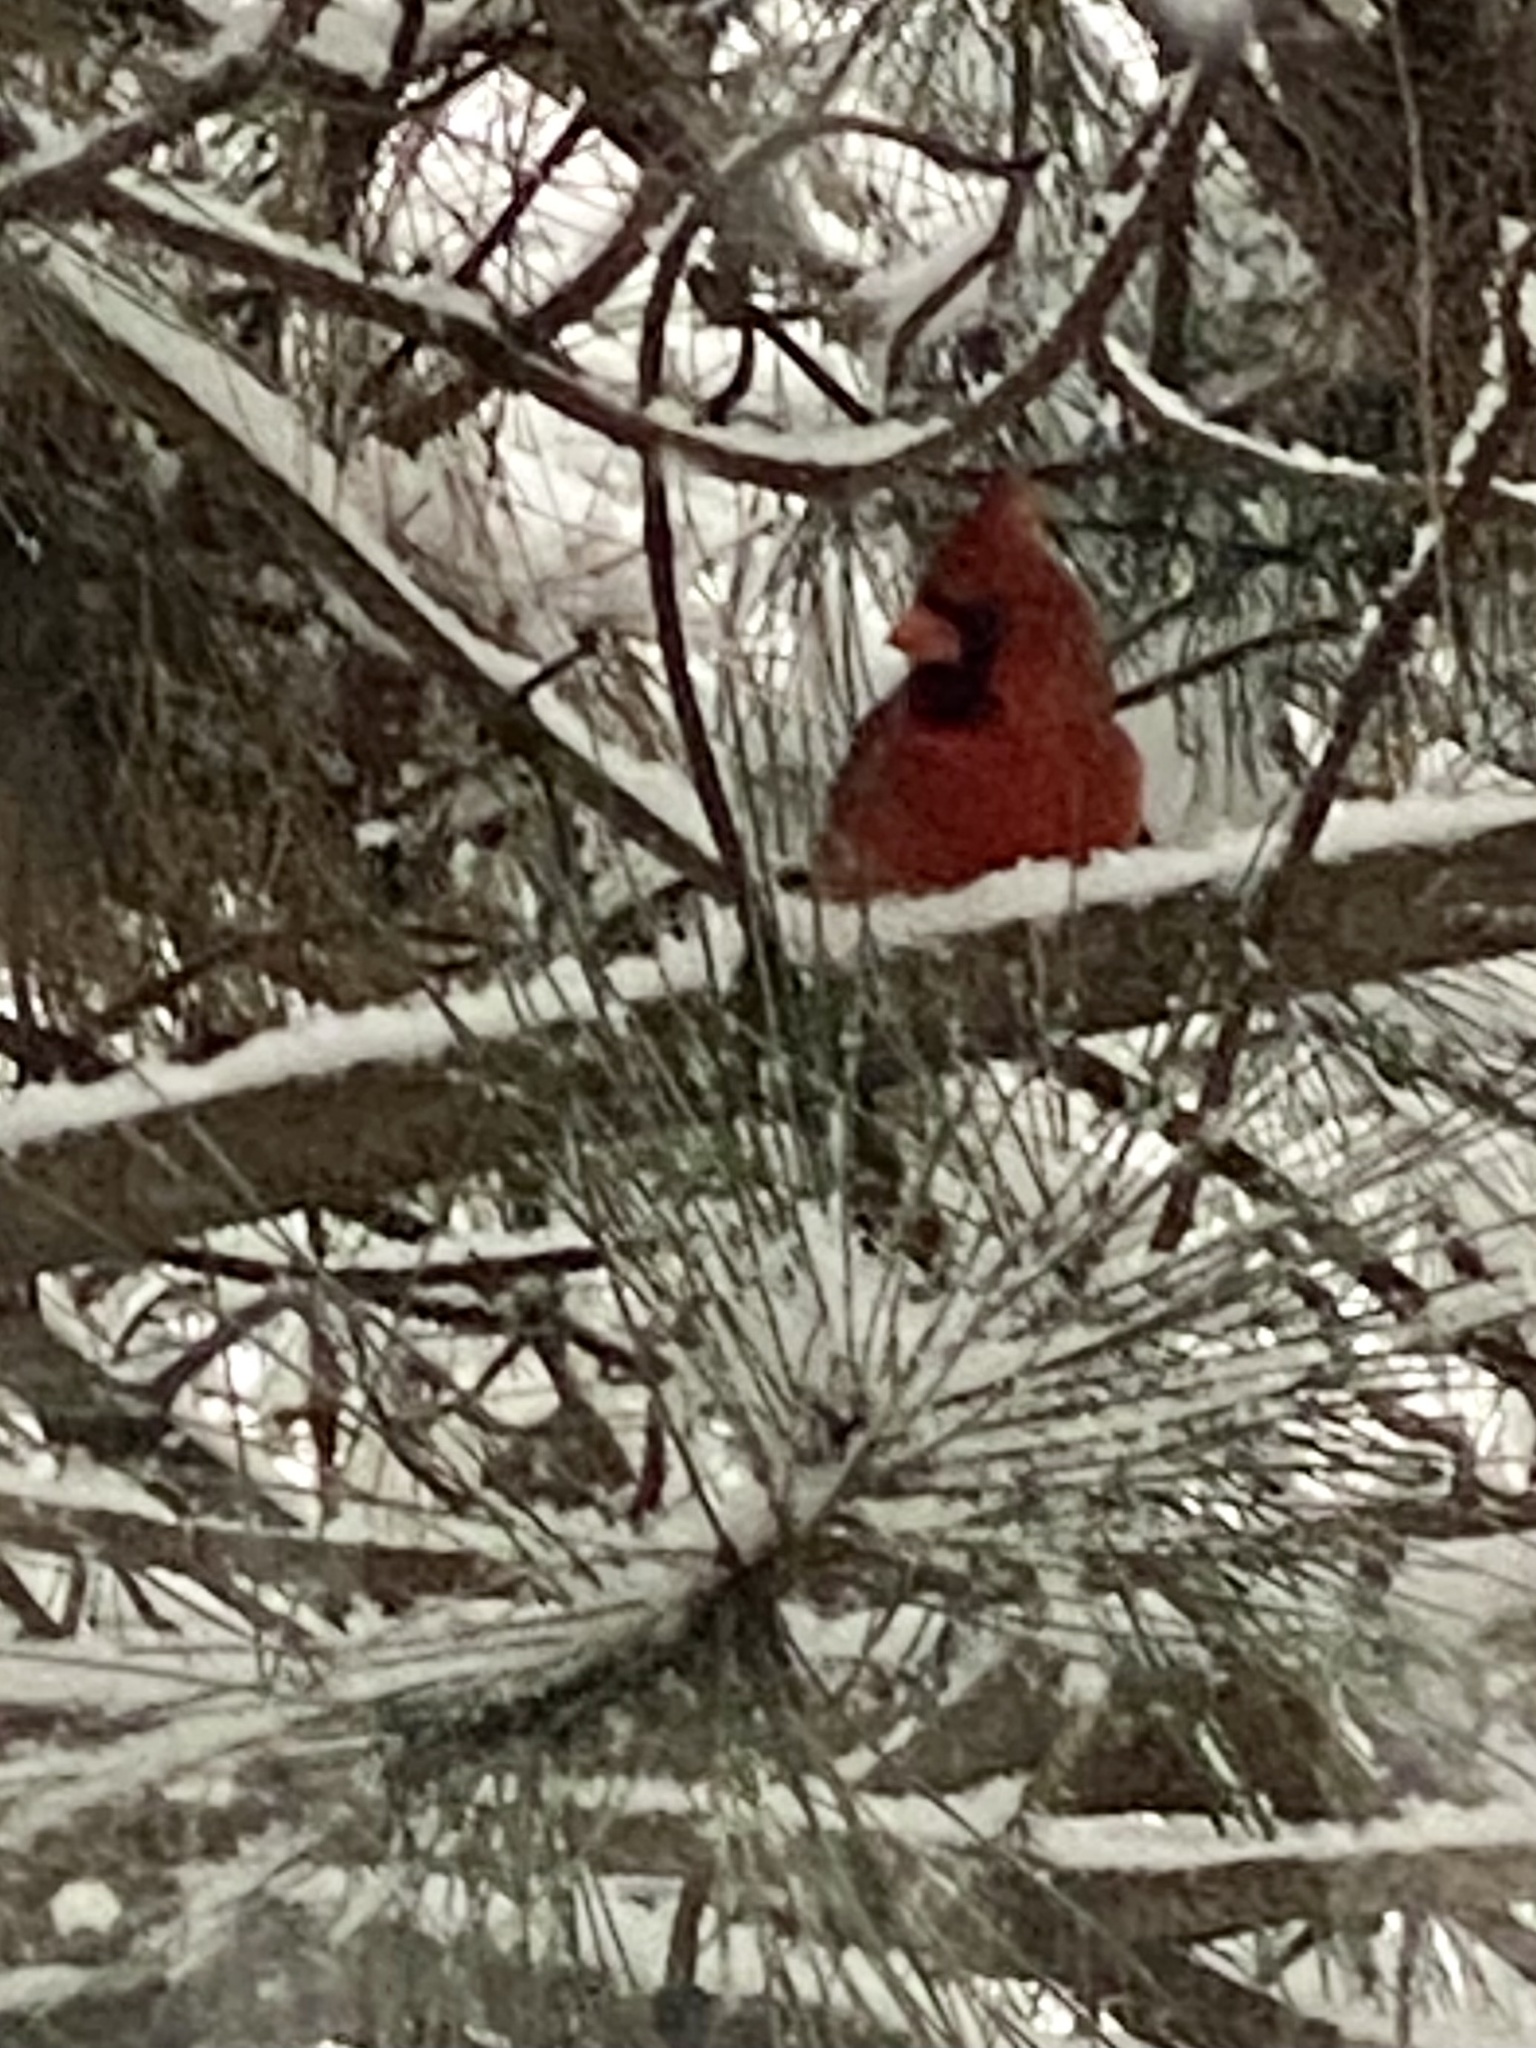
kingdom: Animalia
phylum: Chordata
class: Aves
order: Passeriformes
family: Cardinalidae
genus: Cardinalis
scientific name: Cardinalis cardinalis
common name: Northern cardinal
